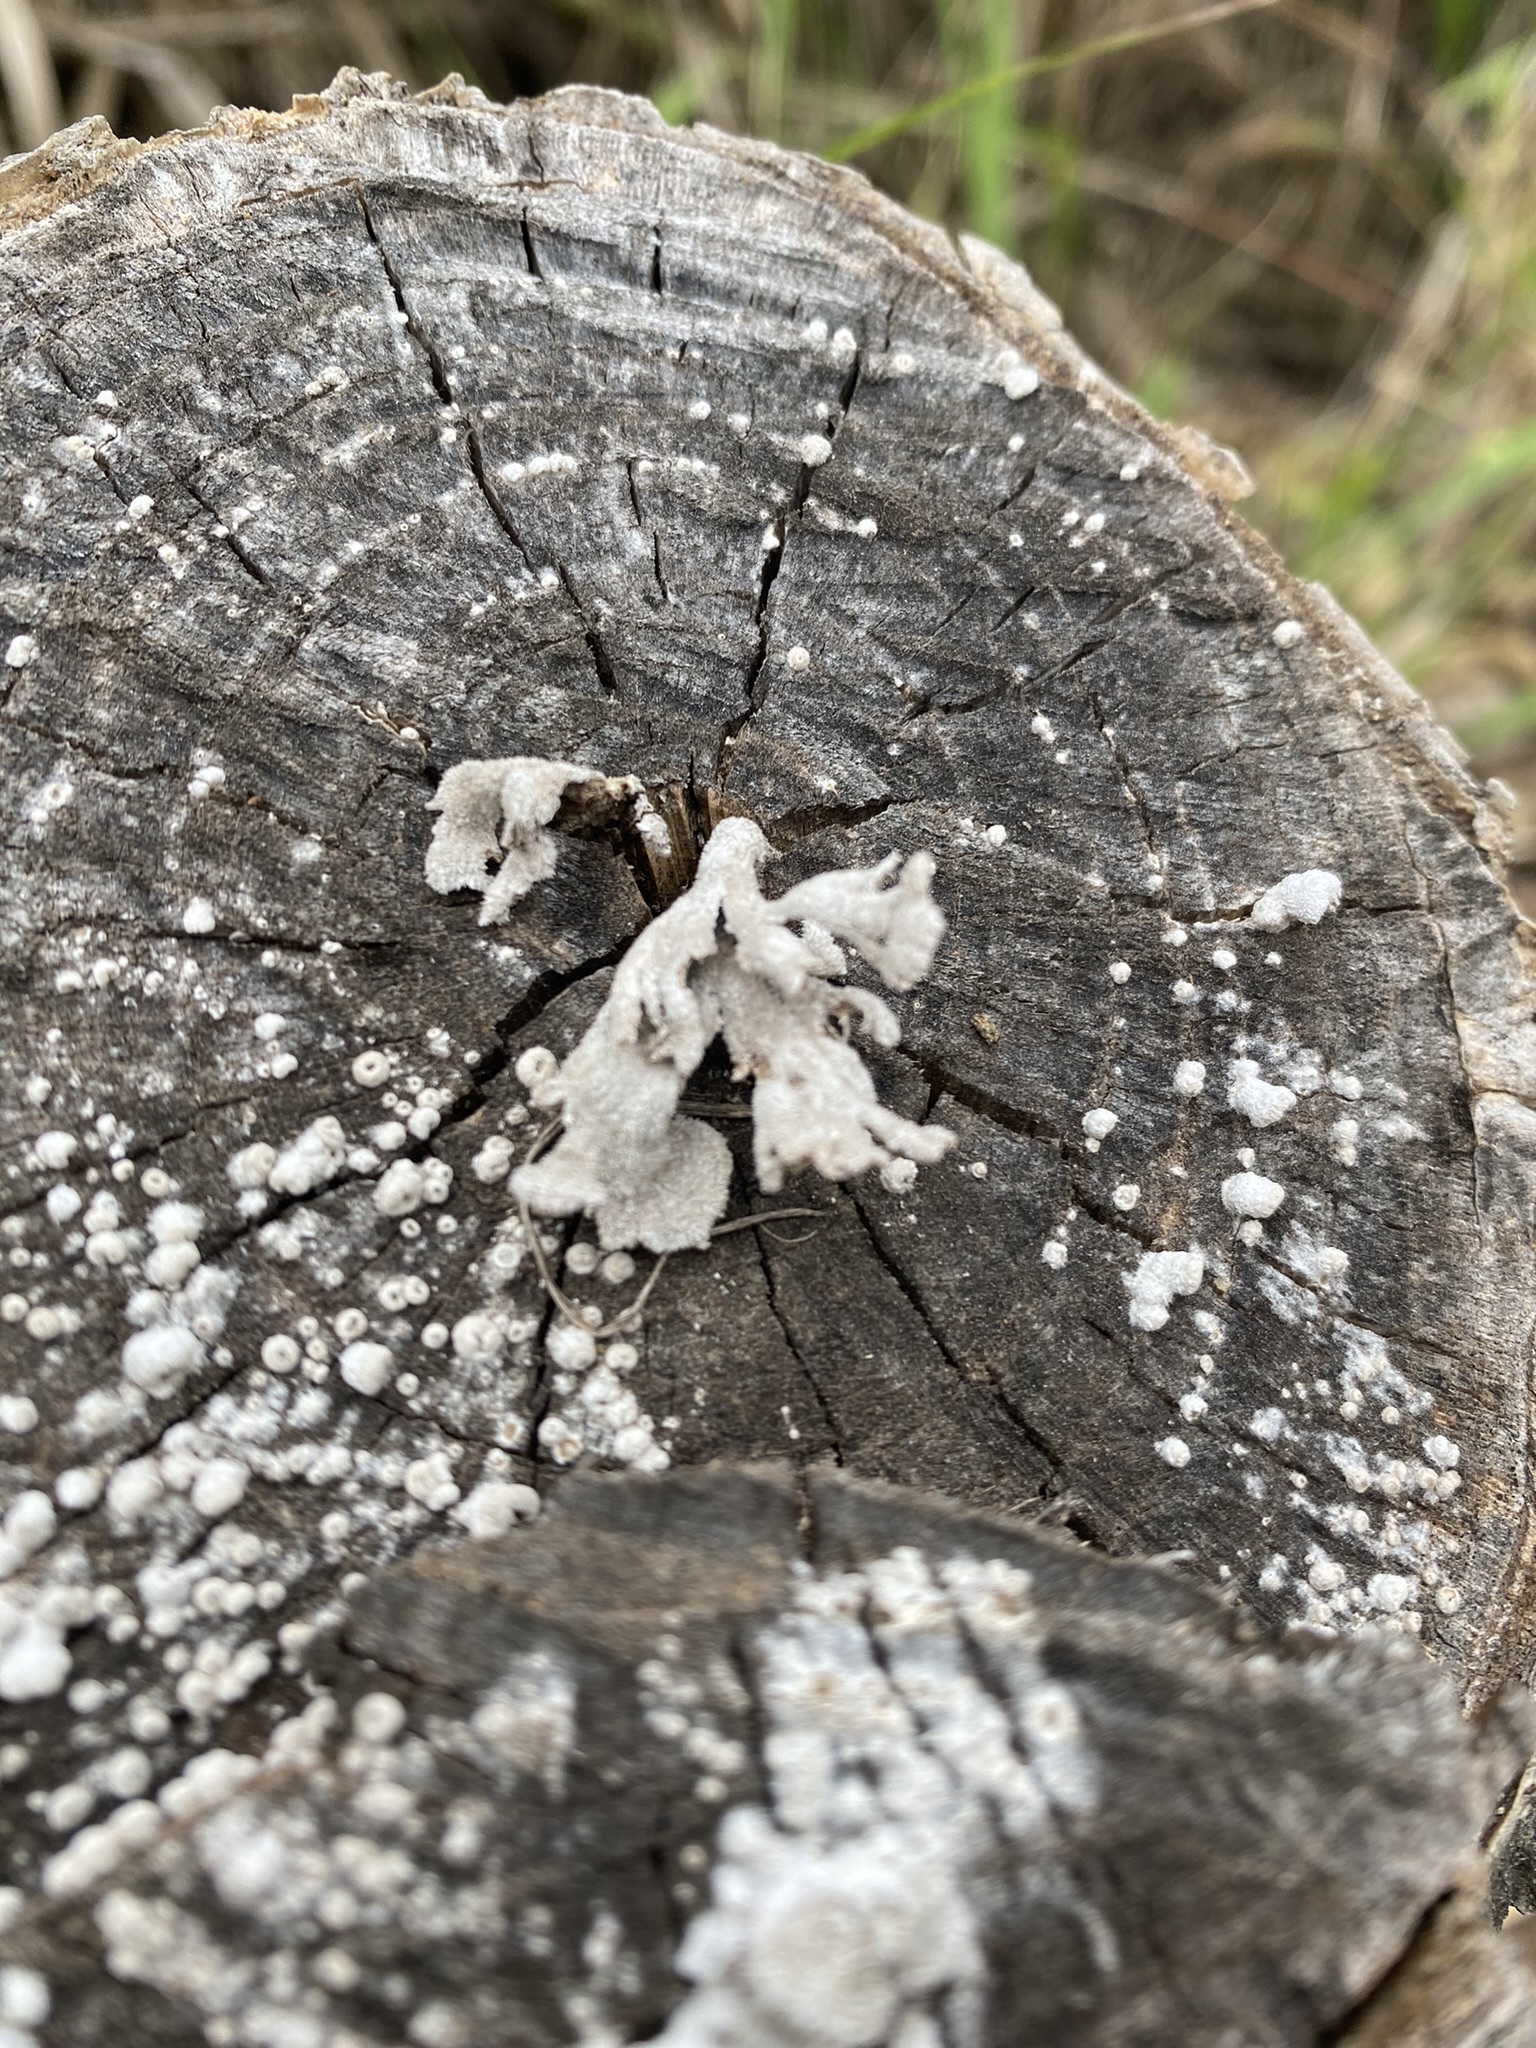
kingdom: Fungi
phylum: Basidiomycota
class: Agaricomycetes
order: Agaricales
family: Schizophyllaceae
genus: Schizophyllum
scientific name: Schizophyllum commune
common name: Common porecrust
